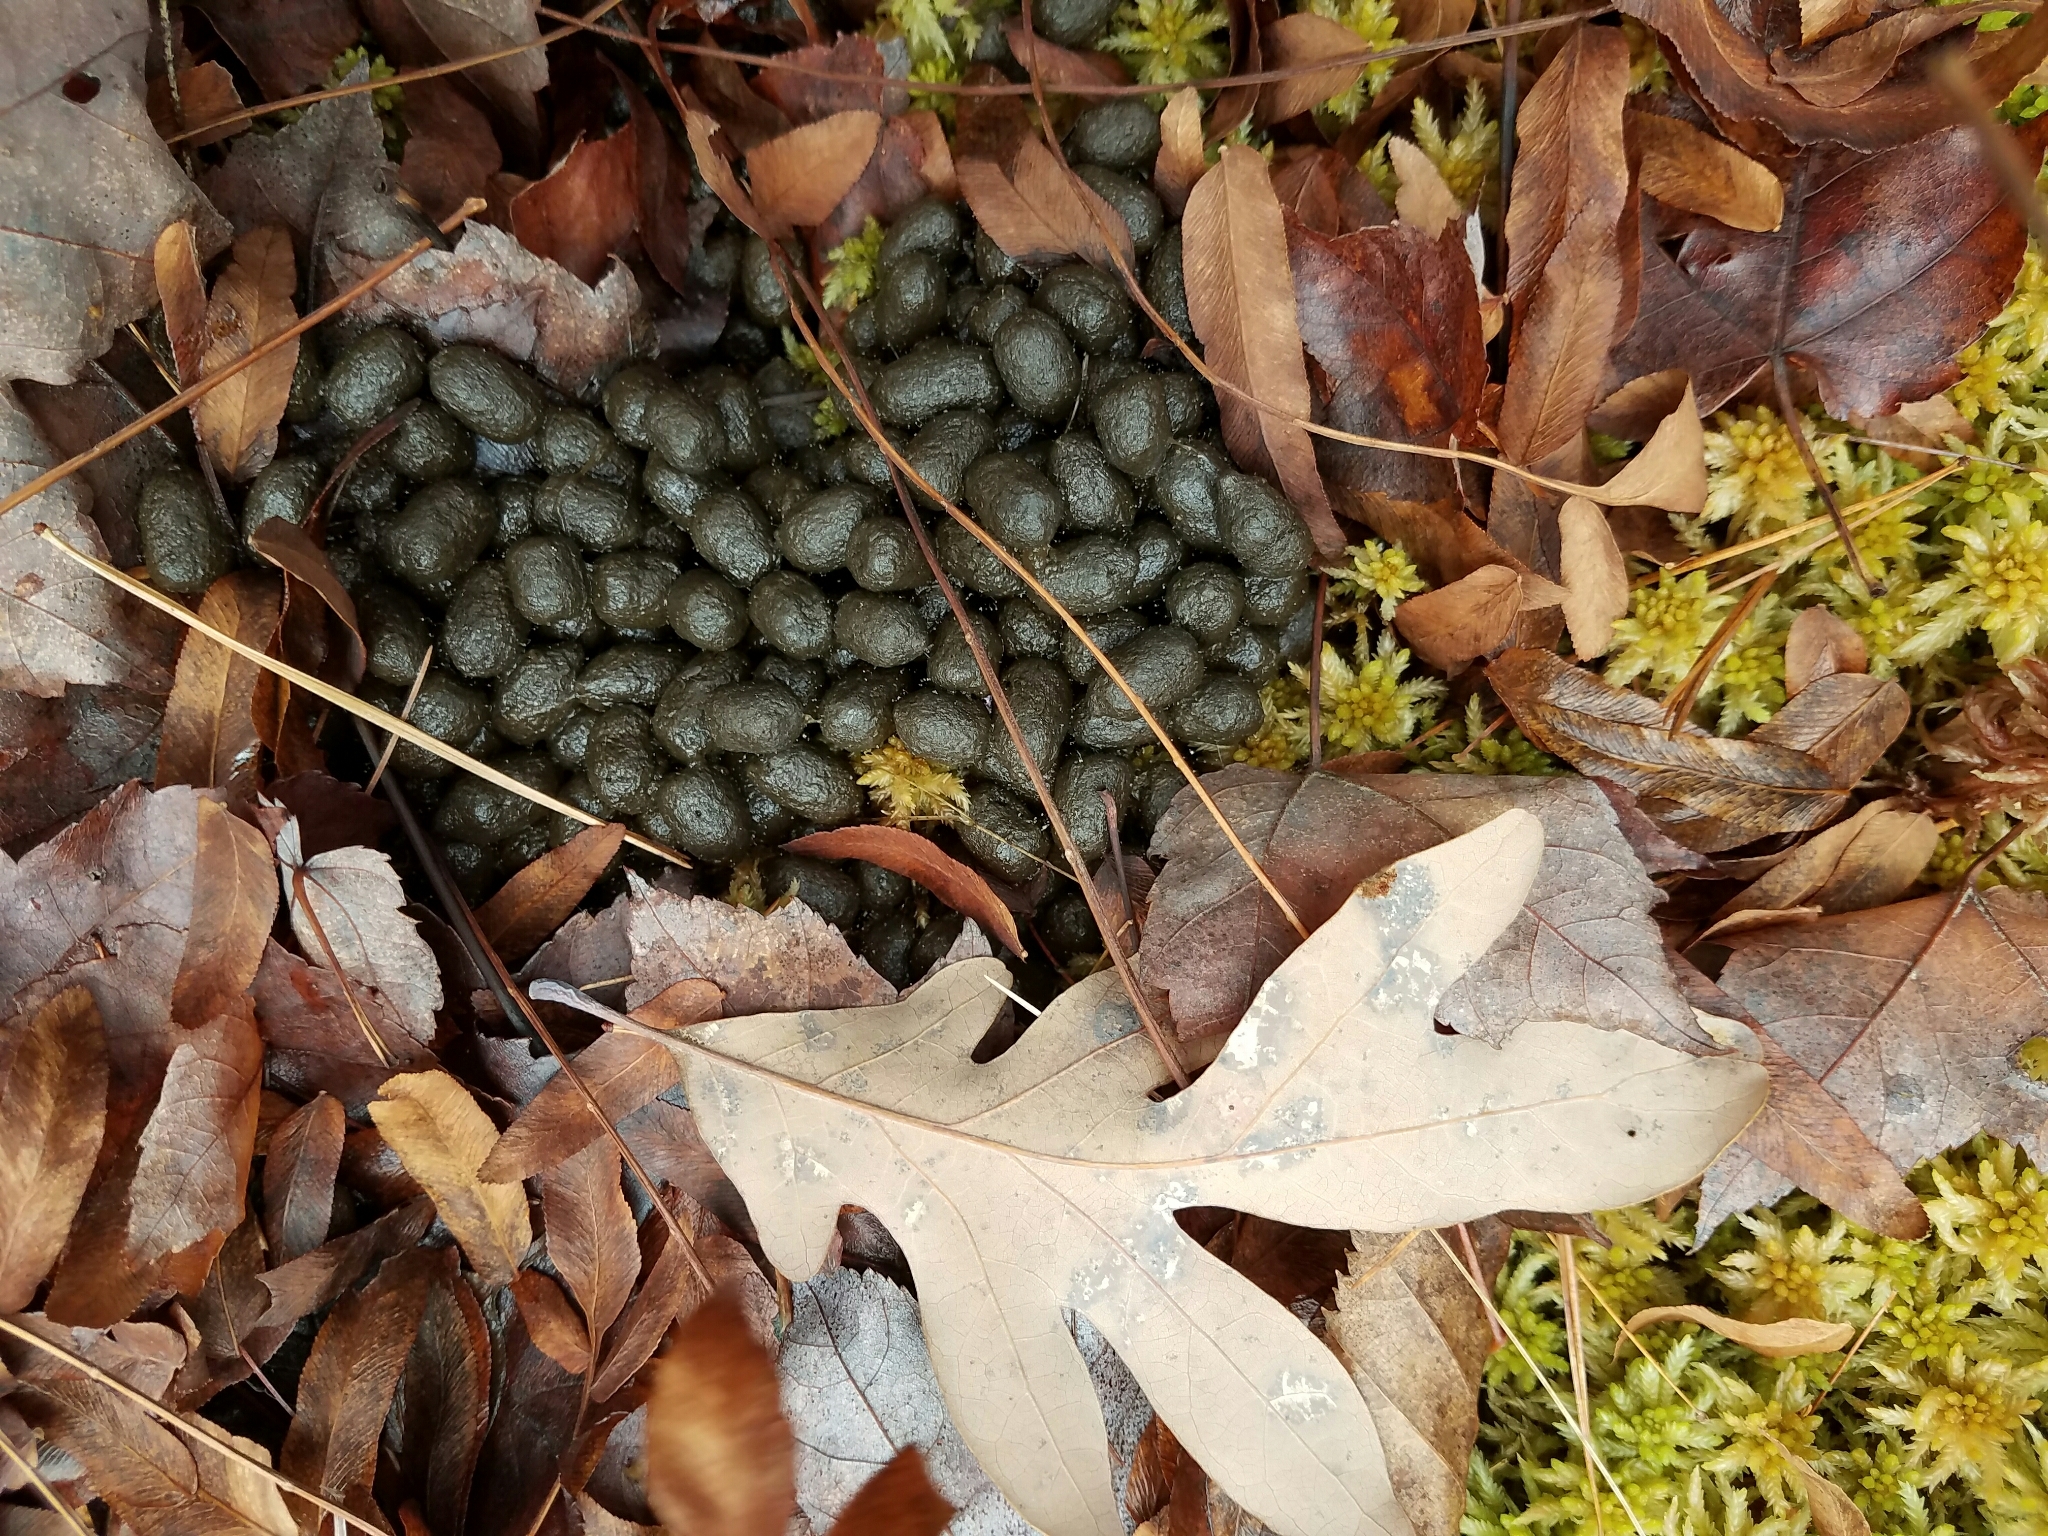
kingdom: Animalia
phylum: Chordata
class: Mammalia
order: Artiodactyla
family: Cervidae
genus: Odocoileus
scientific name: Odocoileus virginianus
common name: White-tailed deer
